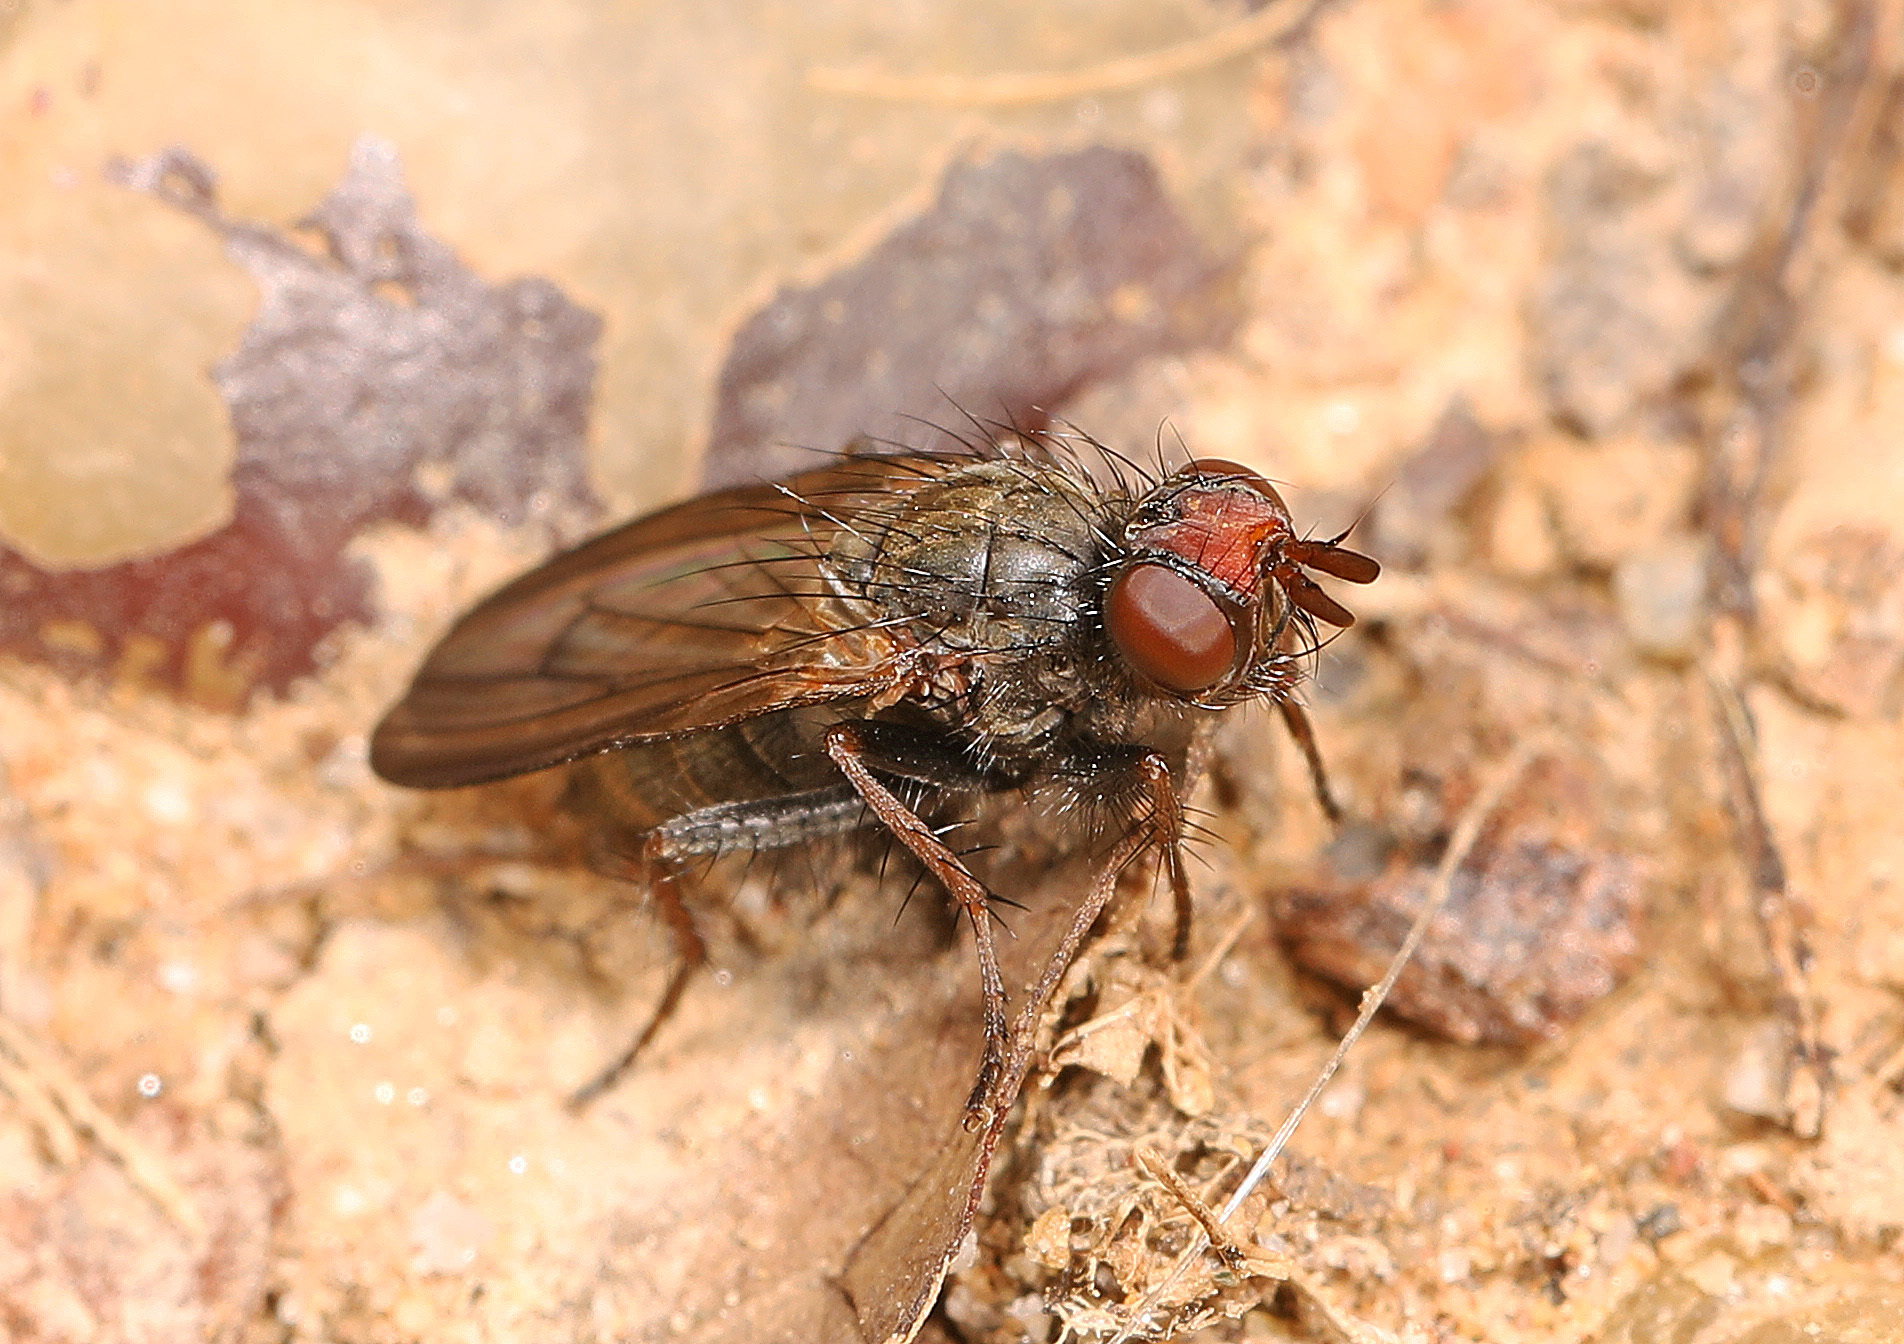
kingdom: Animalia
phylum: Arthropoda
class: Insecta
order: Diptera
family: Scathophagidae
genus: Bucephalina
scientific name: Bucephalina megacephala
